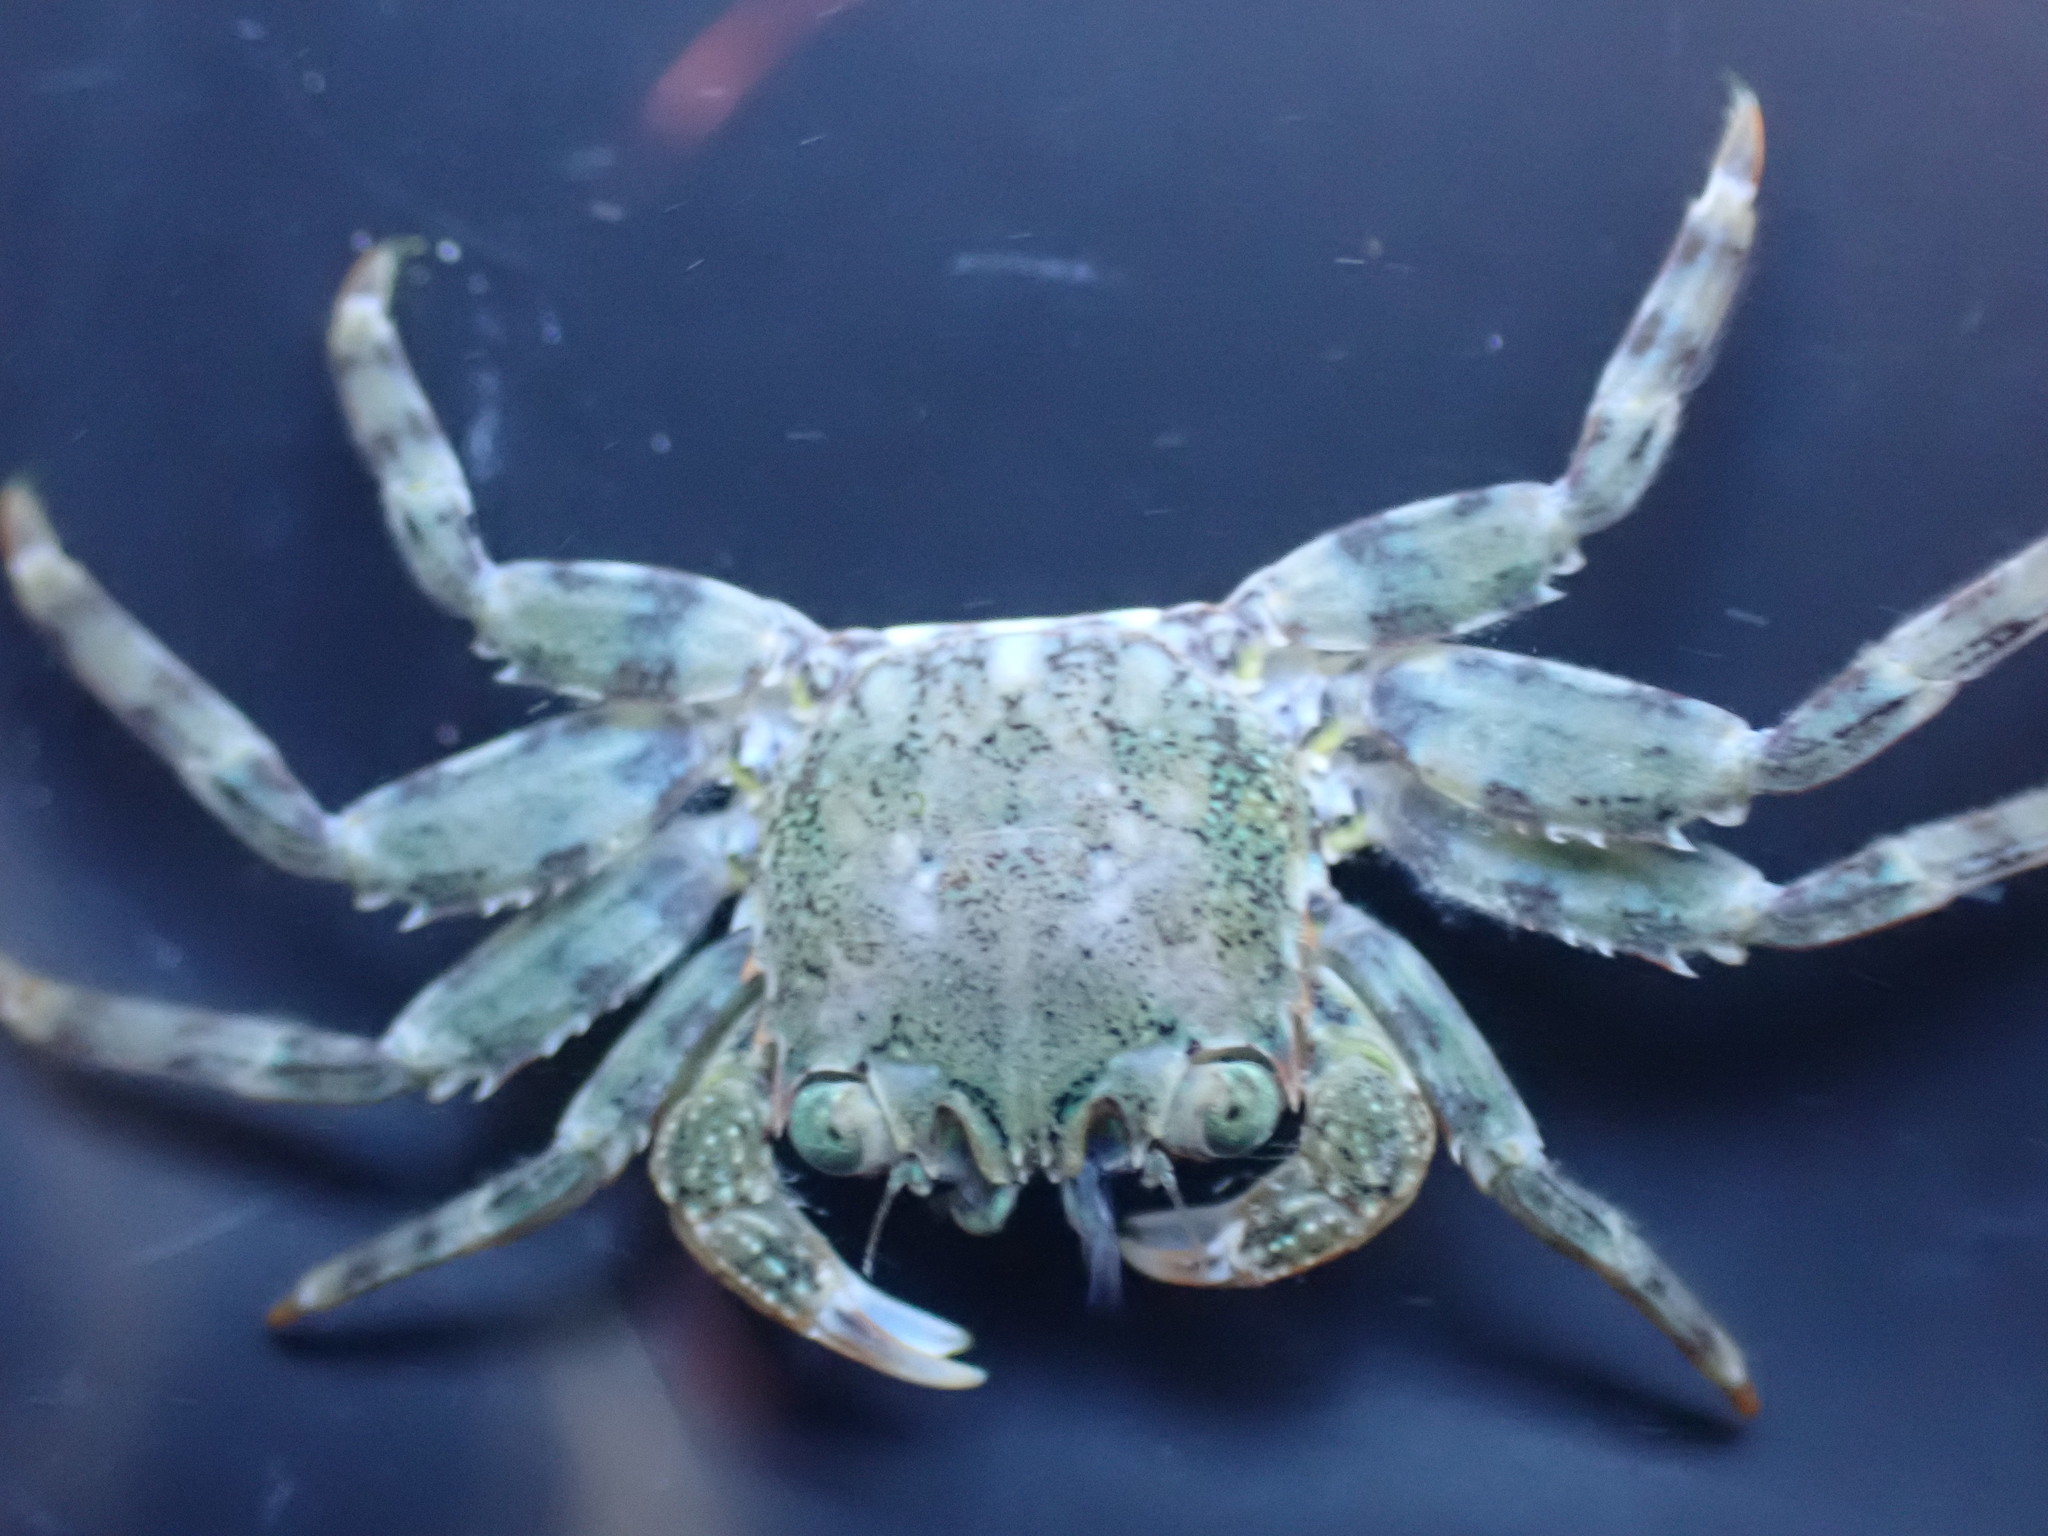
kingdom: Animalia
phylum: Arthropoda
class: Malacostraca
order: Decapoda
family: Plagusiidae
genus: Guinusia
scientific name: Guinusia chabrus
